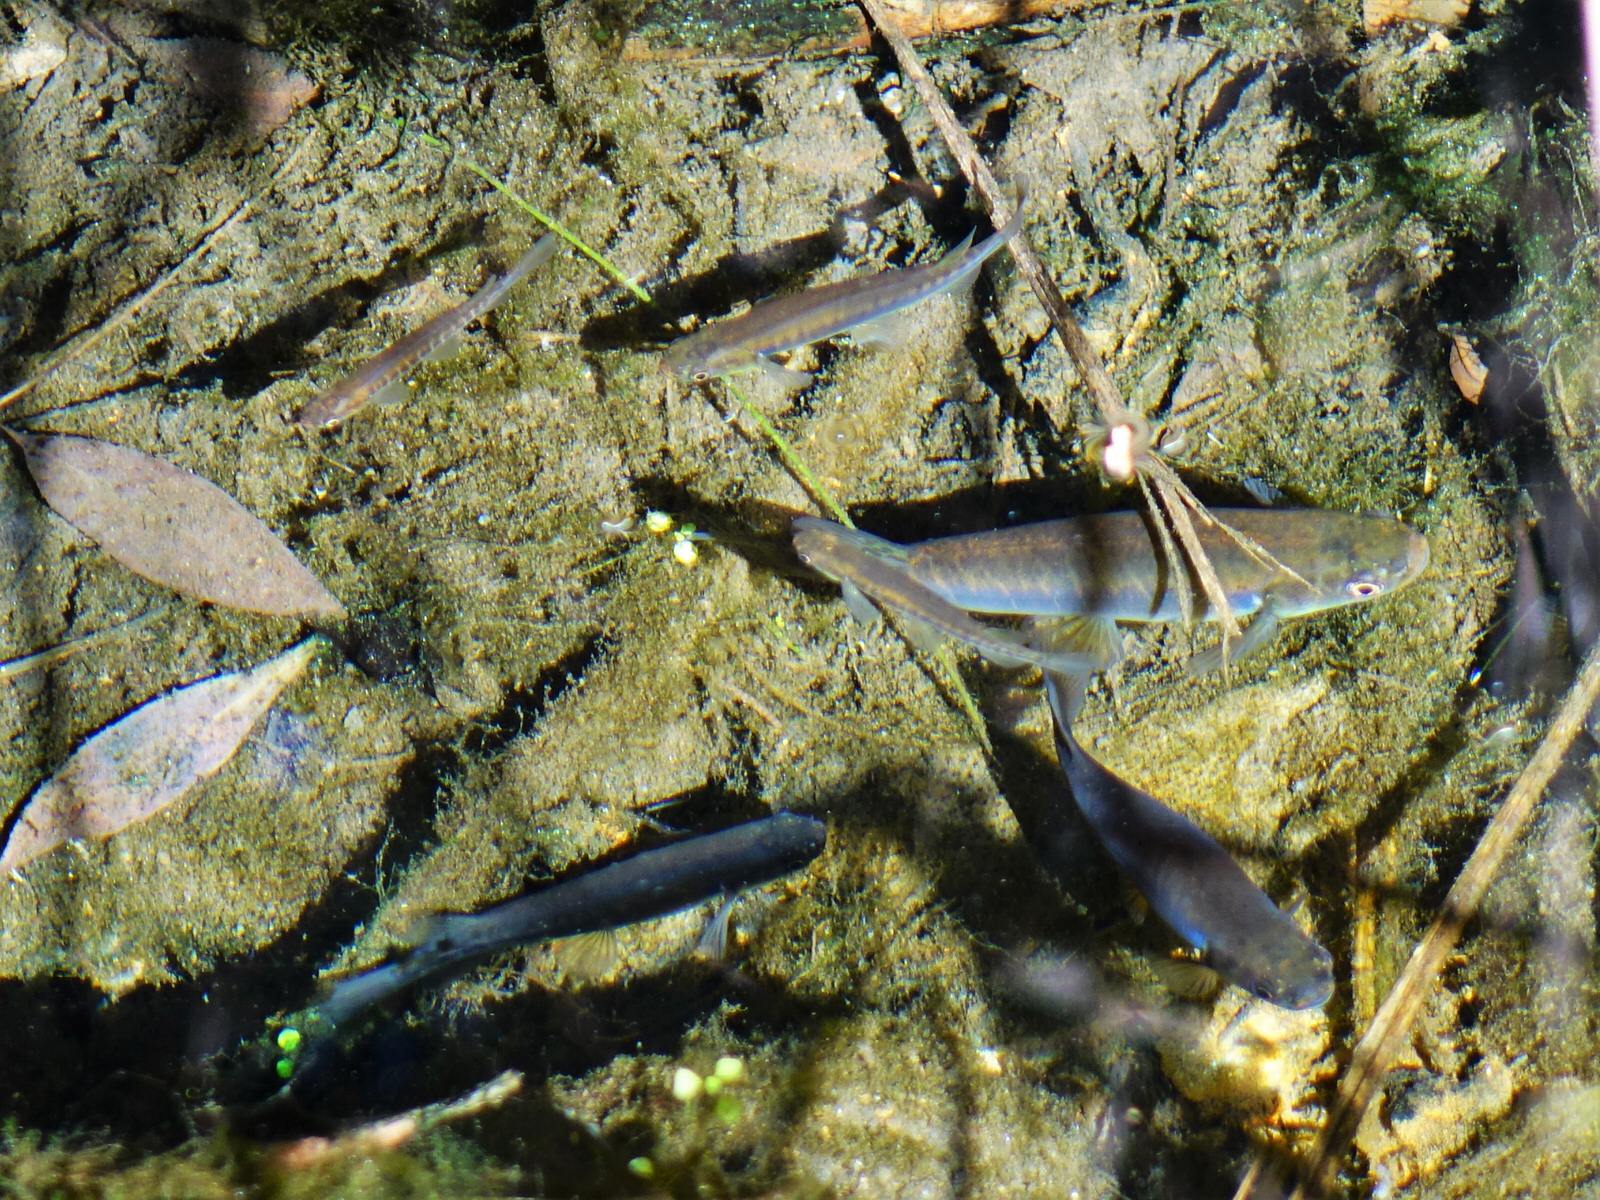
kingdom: Animalia
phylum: Chordata
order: Osmeriformes
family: Galaxiidae
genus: Galaxias
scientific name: Galaxias fasciatus
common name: Banded kokopu
